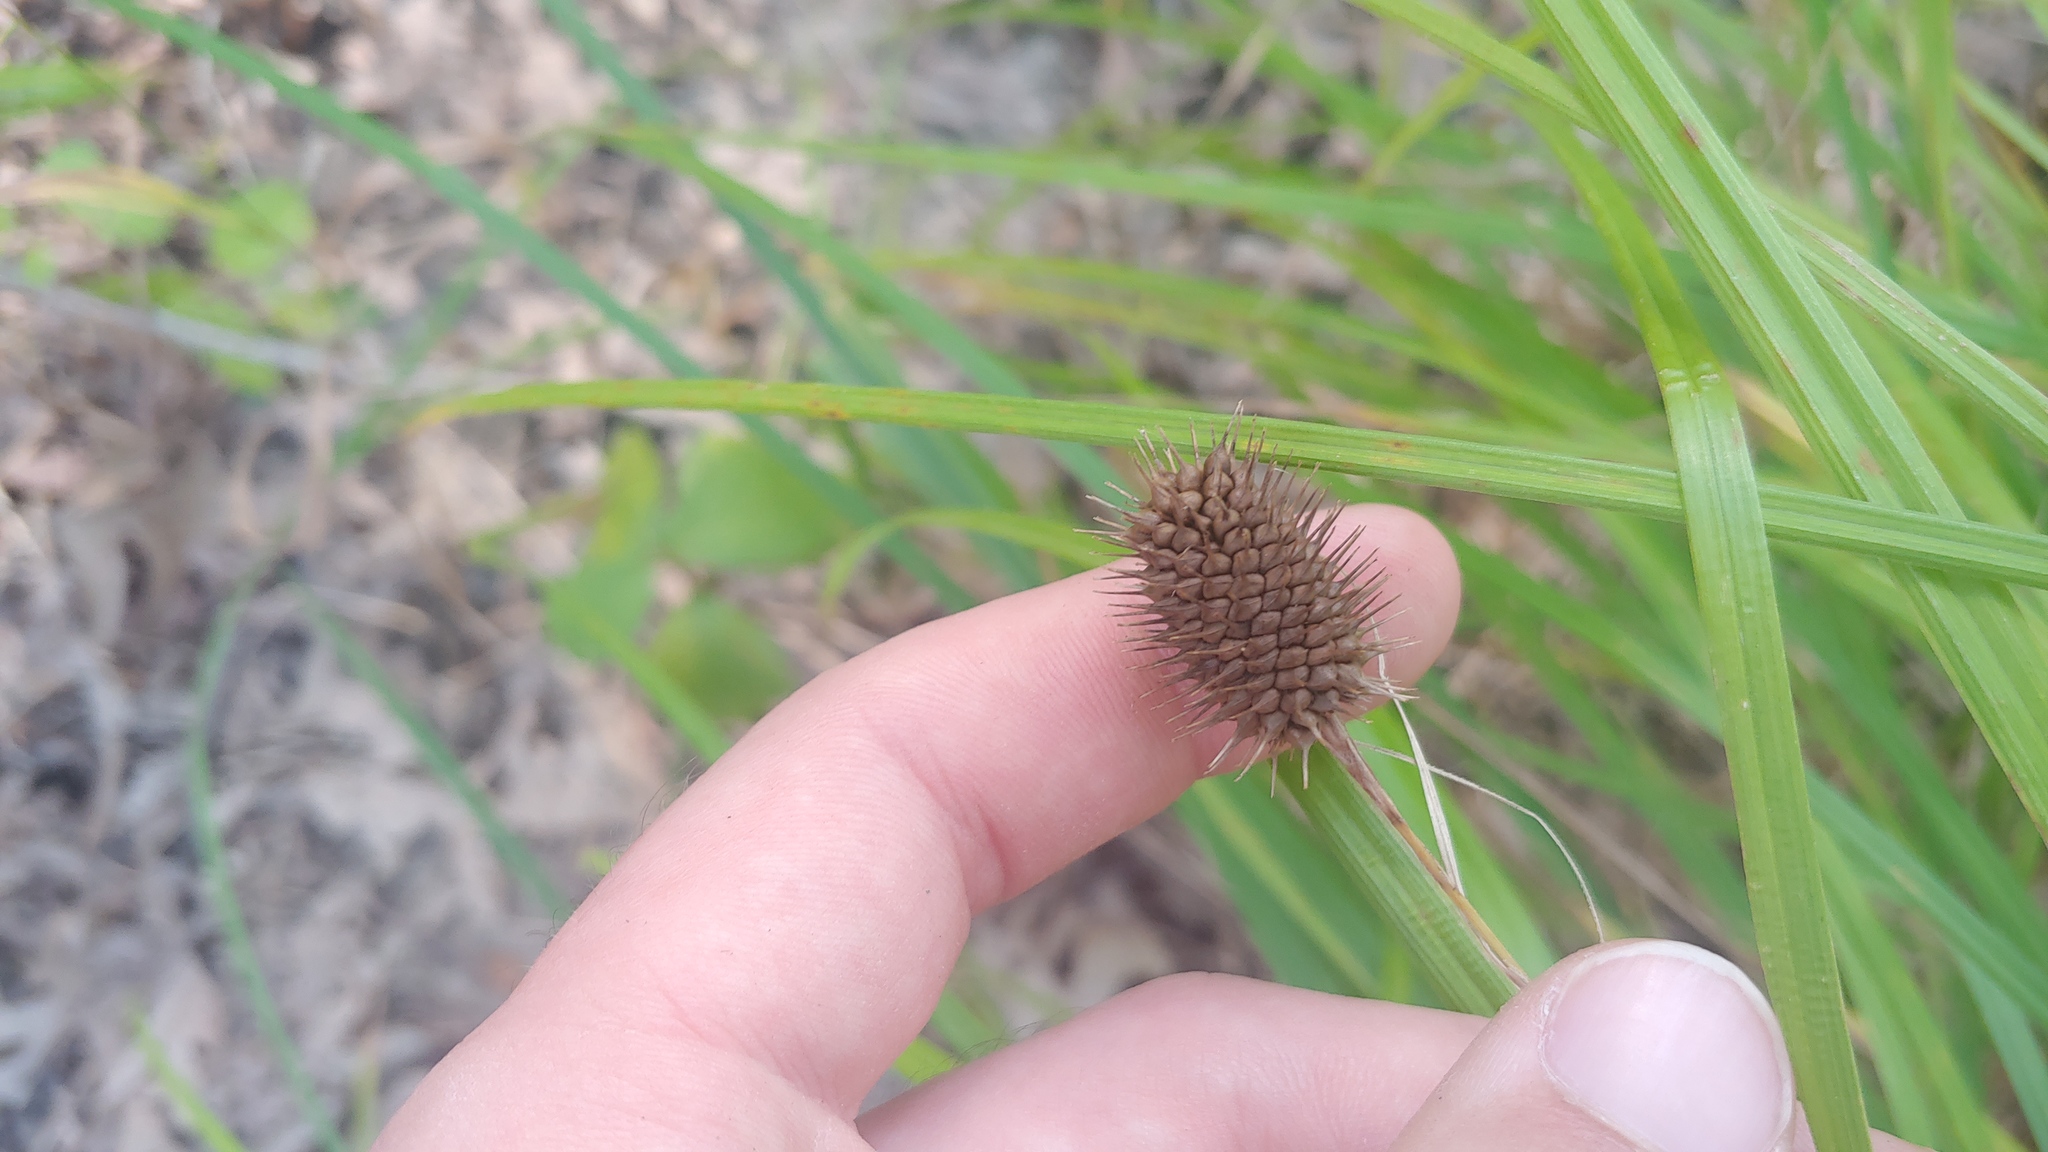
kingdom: Plantae
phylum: Tracheophyta
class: Liliopsida
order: Poales
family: Cyperaceae
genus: Carex
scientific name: Carex squarrosa
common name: Narrow-leaved cattail sedge
